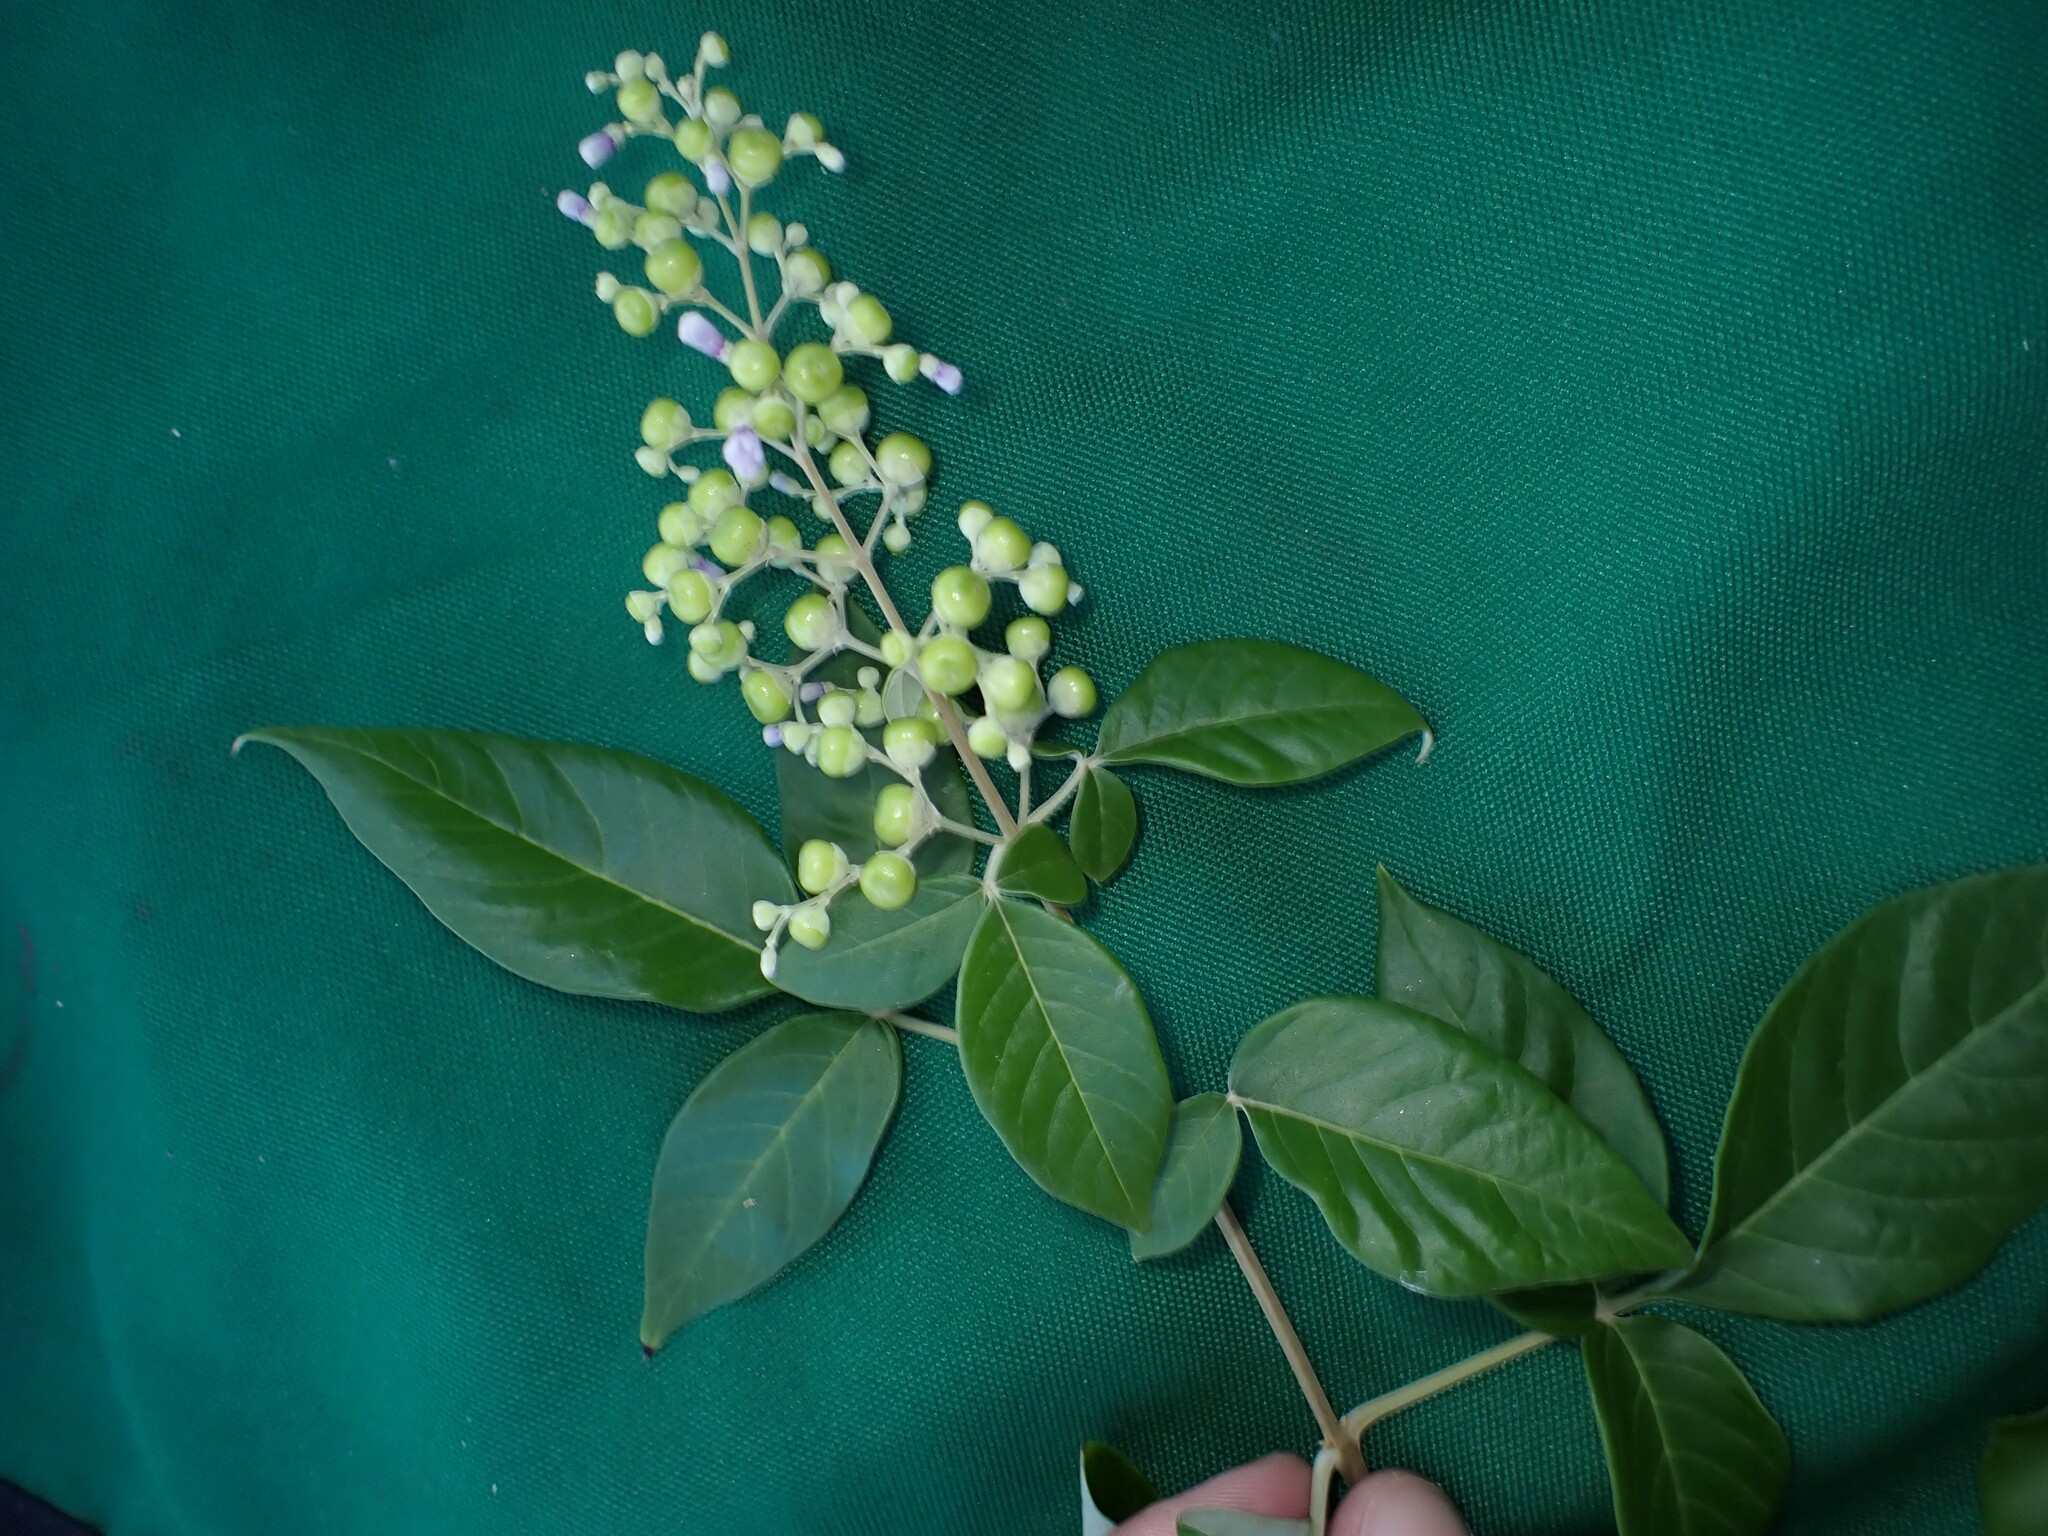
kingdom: Plantae
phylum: Tracheophyta
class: Magnoliopsida
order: Lamiales
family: Lamiaceae
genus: Vitex
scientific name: Vitex trifolia
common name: Simpleleaf chastetree
